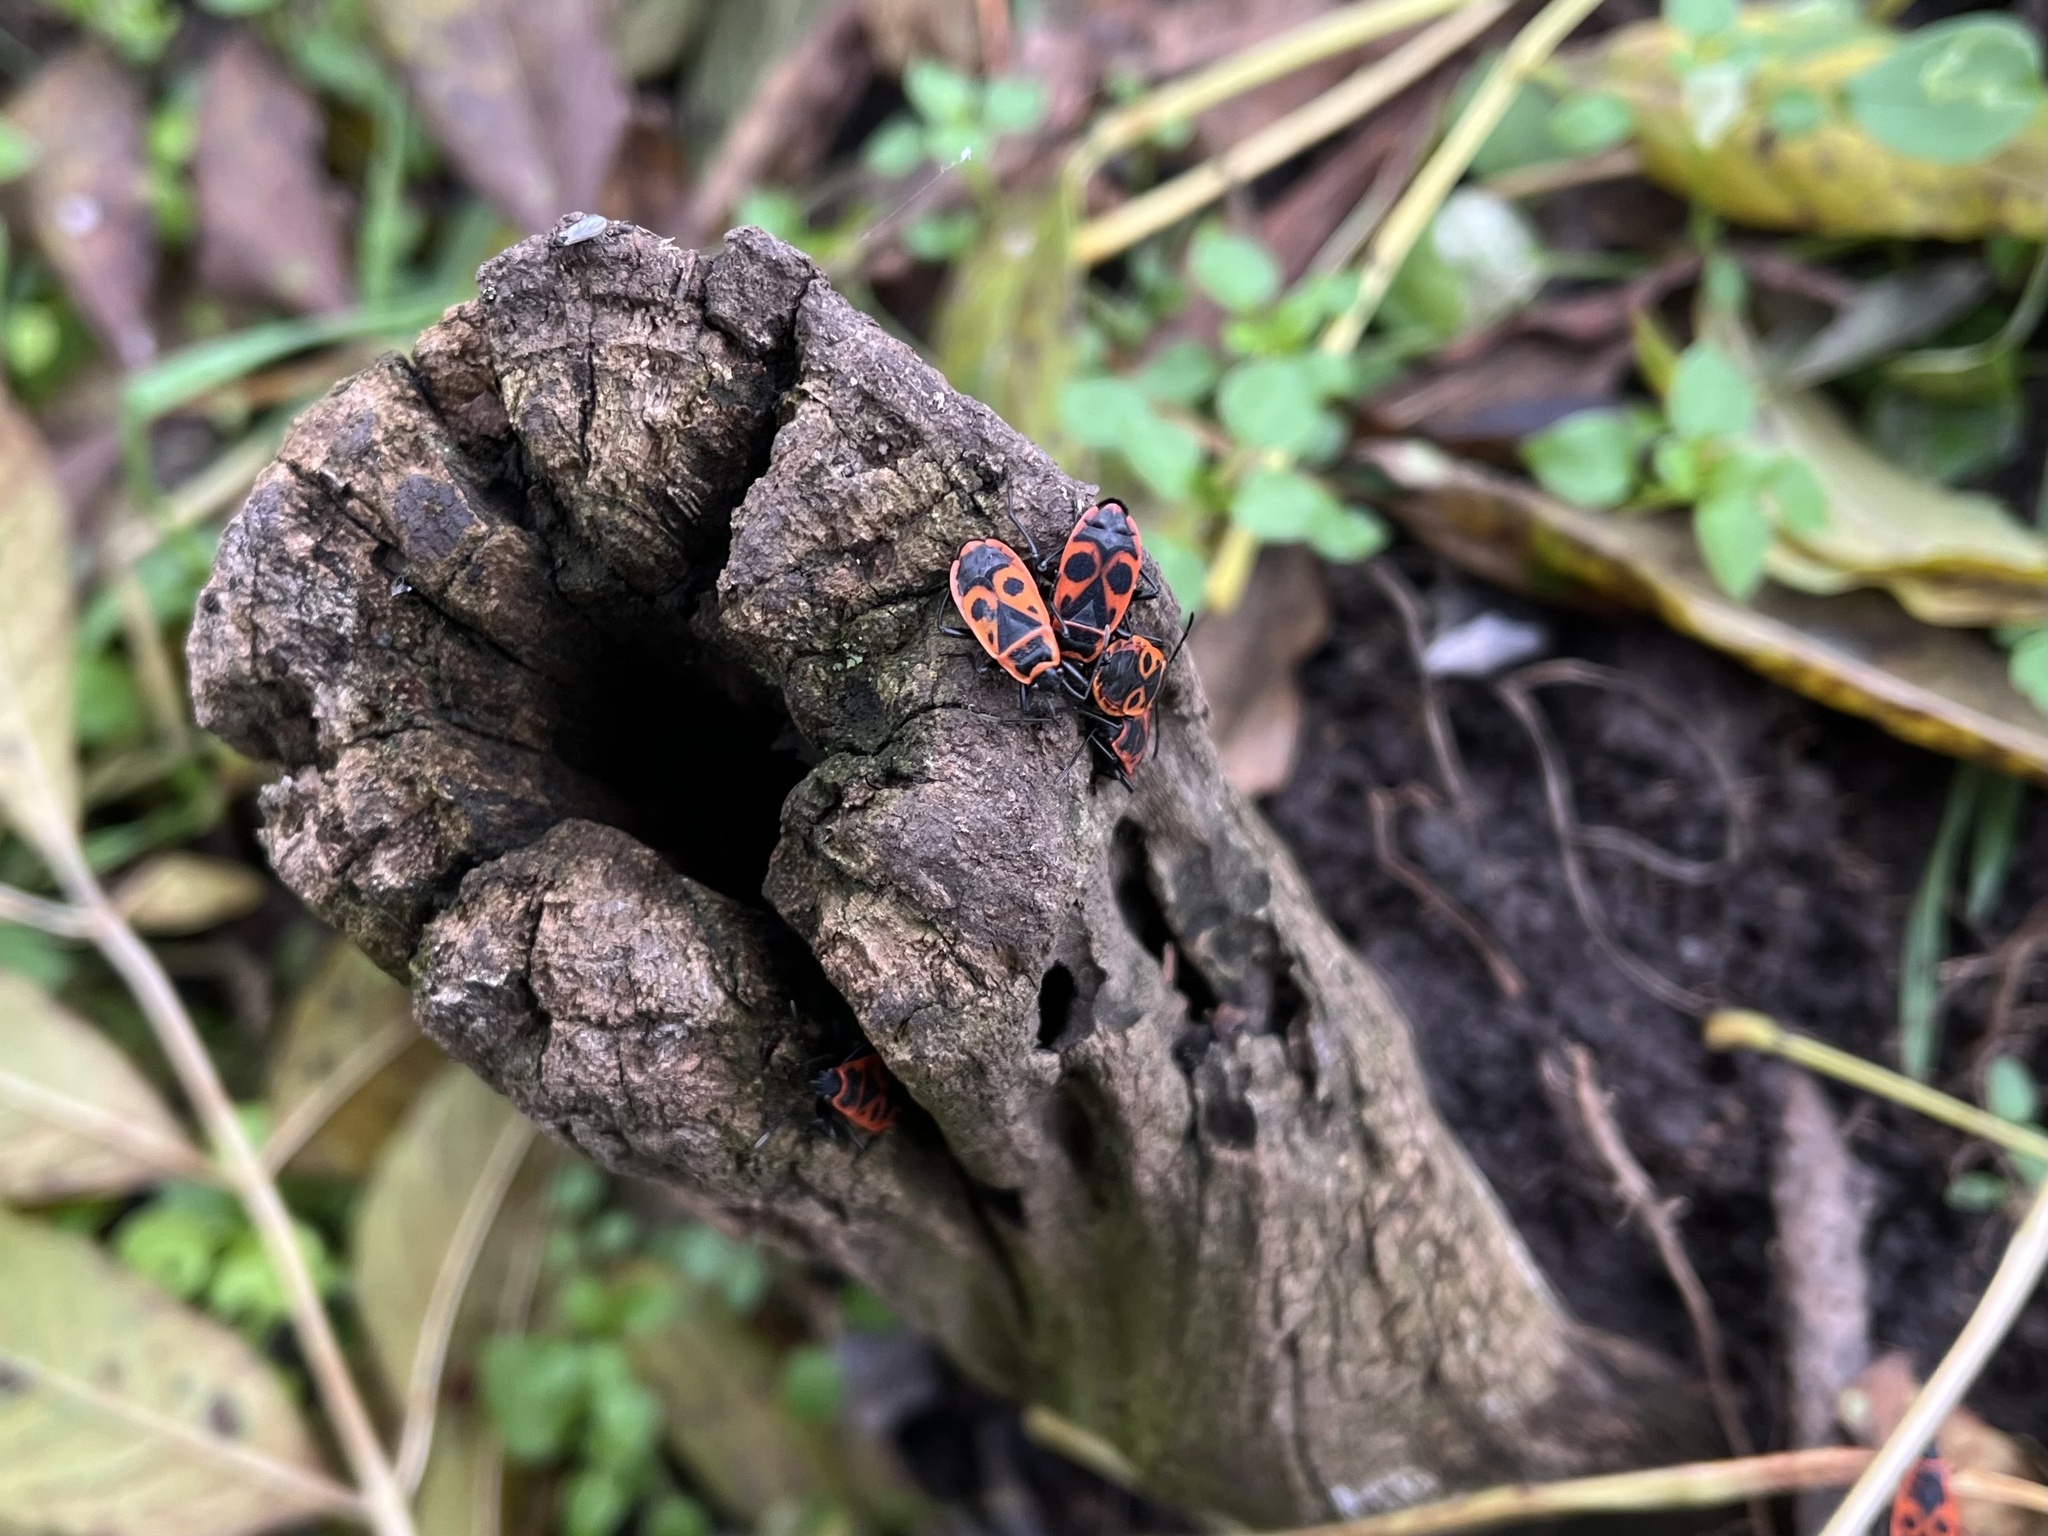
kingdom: Animalia
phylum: Arthropoda
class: Insecta
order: Hemiptera
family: Pyrrhocoridae
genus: Pyrrhocoris
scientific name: Pyrrhocoris apterus
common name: Firebug
